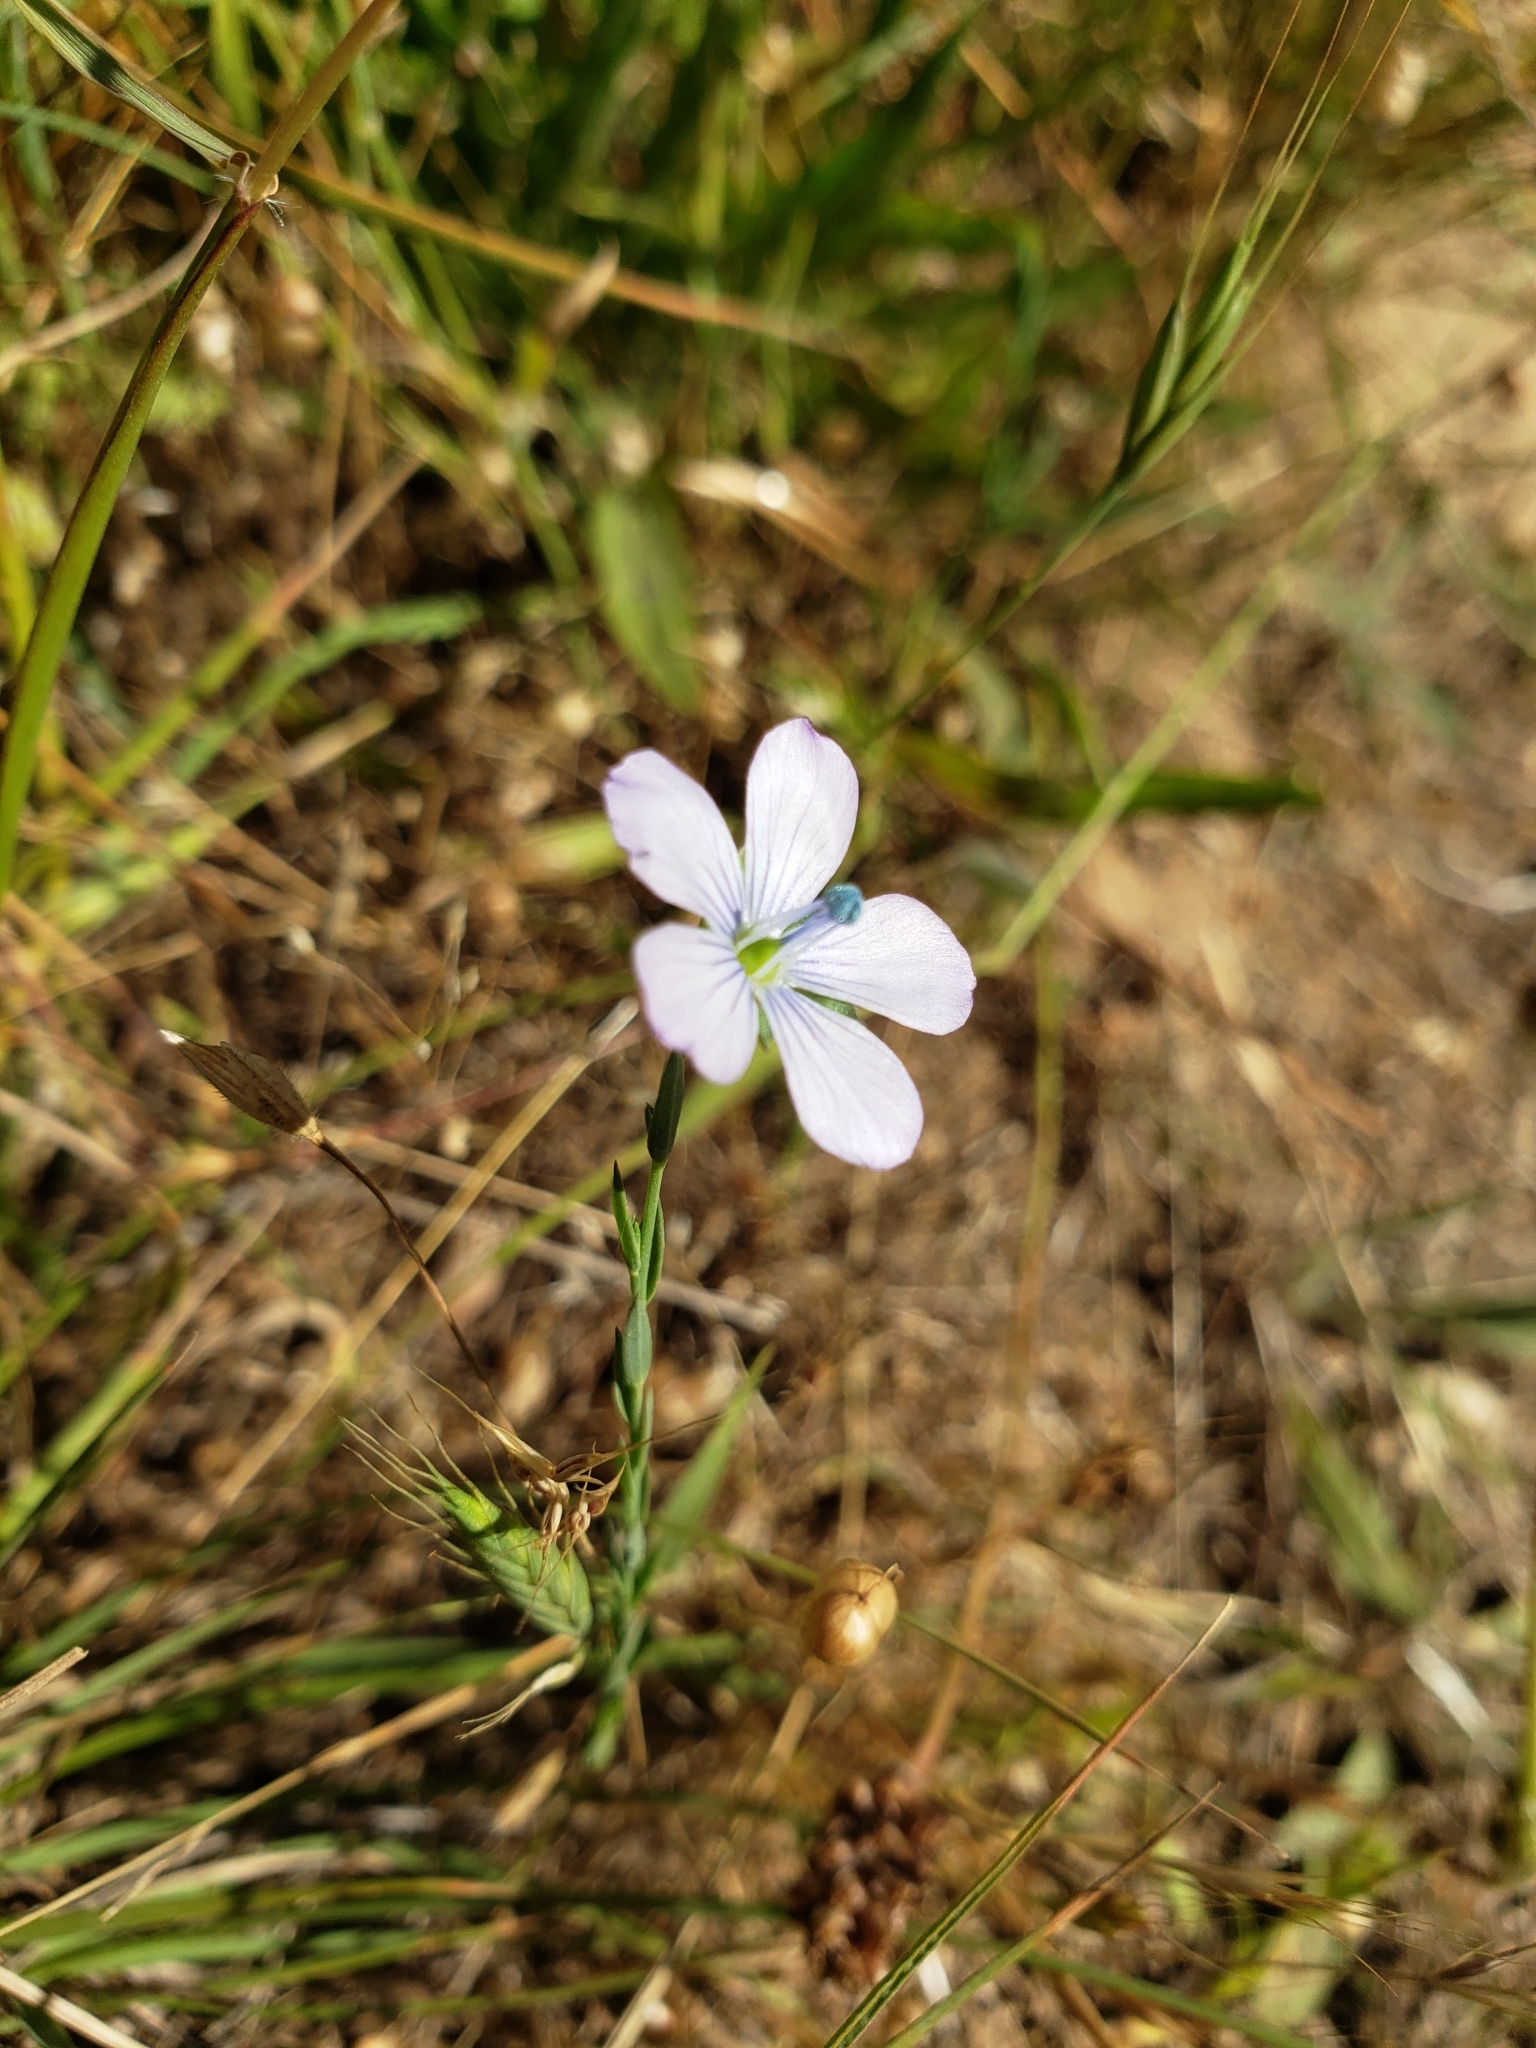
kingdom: Plantae
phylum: Tracheophyta
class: Magnoliopsida
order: Malpighiales
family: Linaceae
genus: Linum
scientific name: Linum bienne
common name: Pale flax
